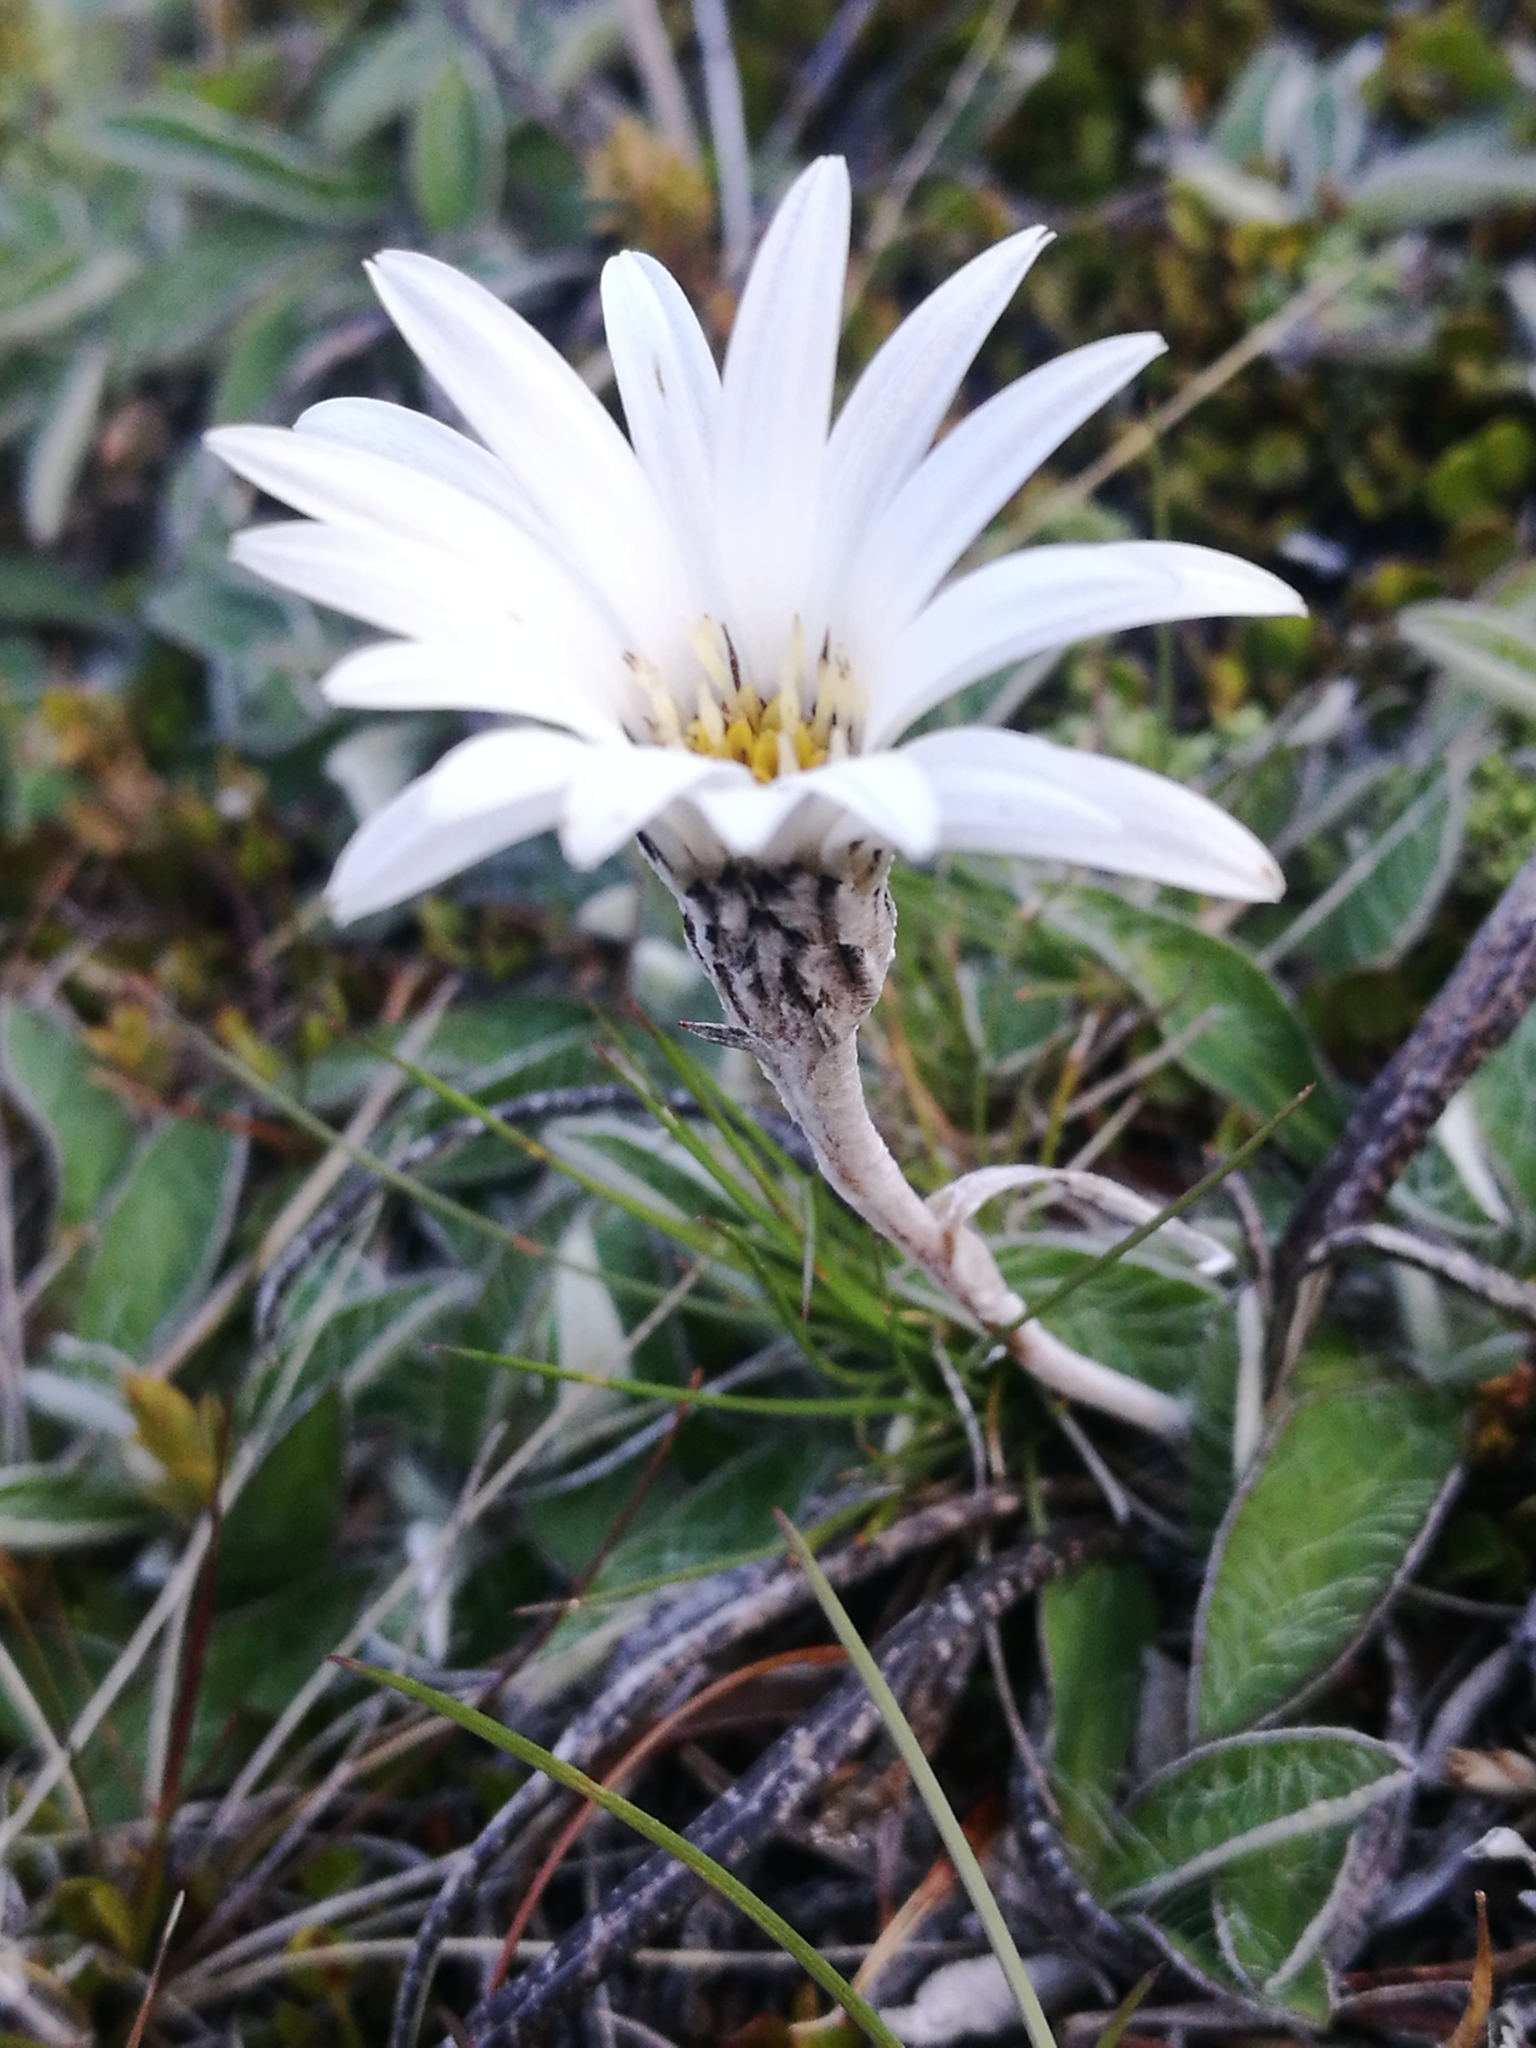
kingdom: Plantae
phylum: Tracheophyta
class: Magnoliopsida
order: Asterales
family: Asteraceae
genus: Celmisia
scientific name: Celmisia gracilenta
